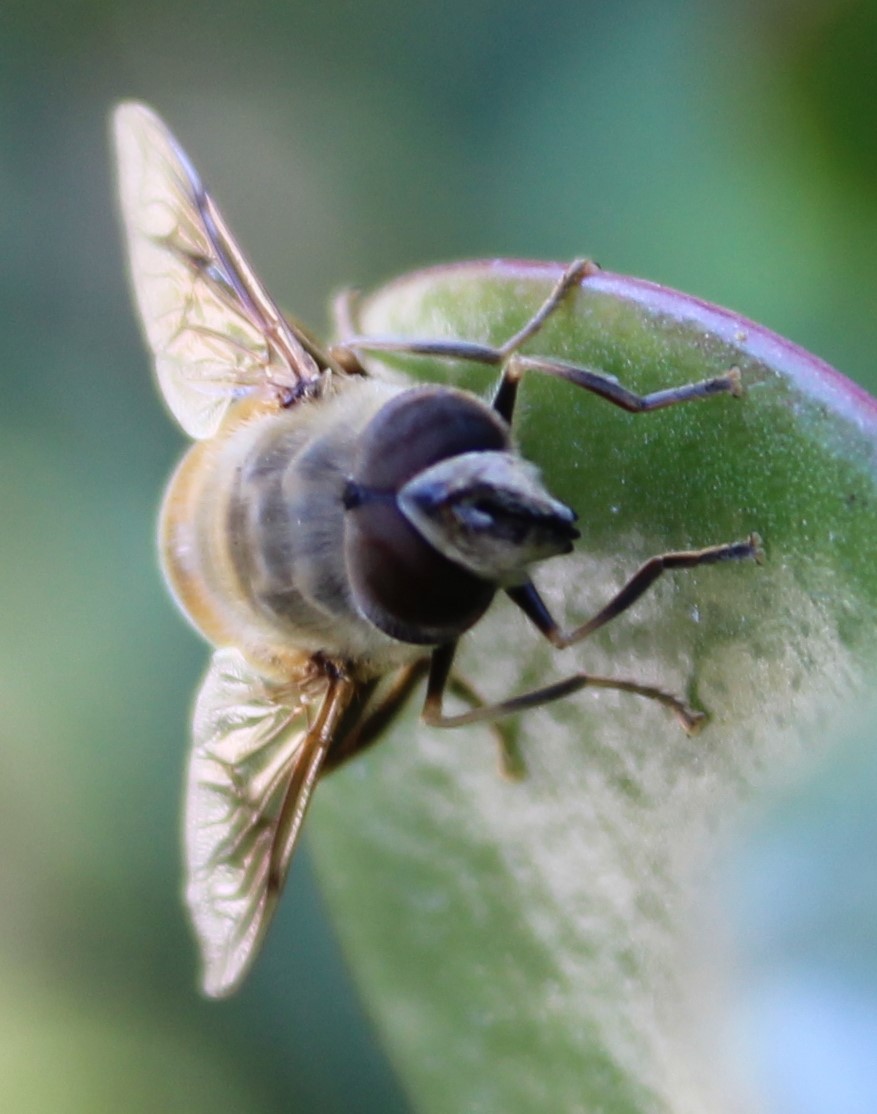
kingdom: Animalia
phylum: Arthropoda
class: Insecta
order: Diptera
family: Syrphidae
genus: Eristalis
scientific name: Eristalis tenax
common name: Drone fly
